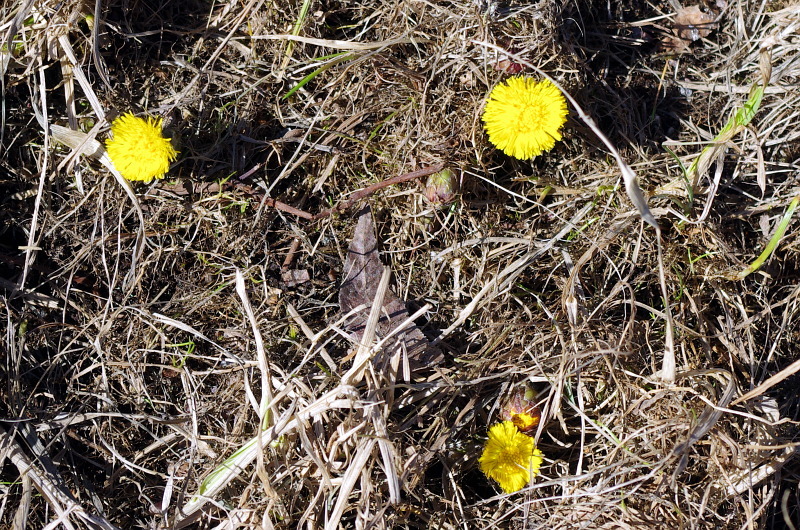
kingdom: Plantae
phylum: Tracheophyta
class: Magnoliopsida
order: Asterales
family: Asteraceae
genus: Tussilago
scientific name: Tussilago farfara
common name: Coltsfoot
